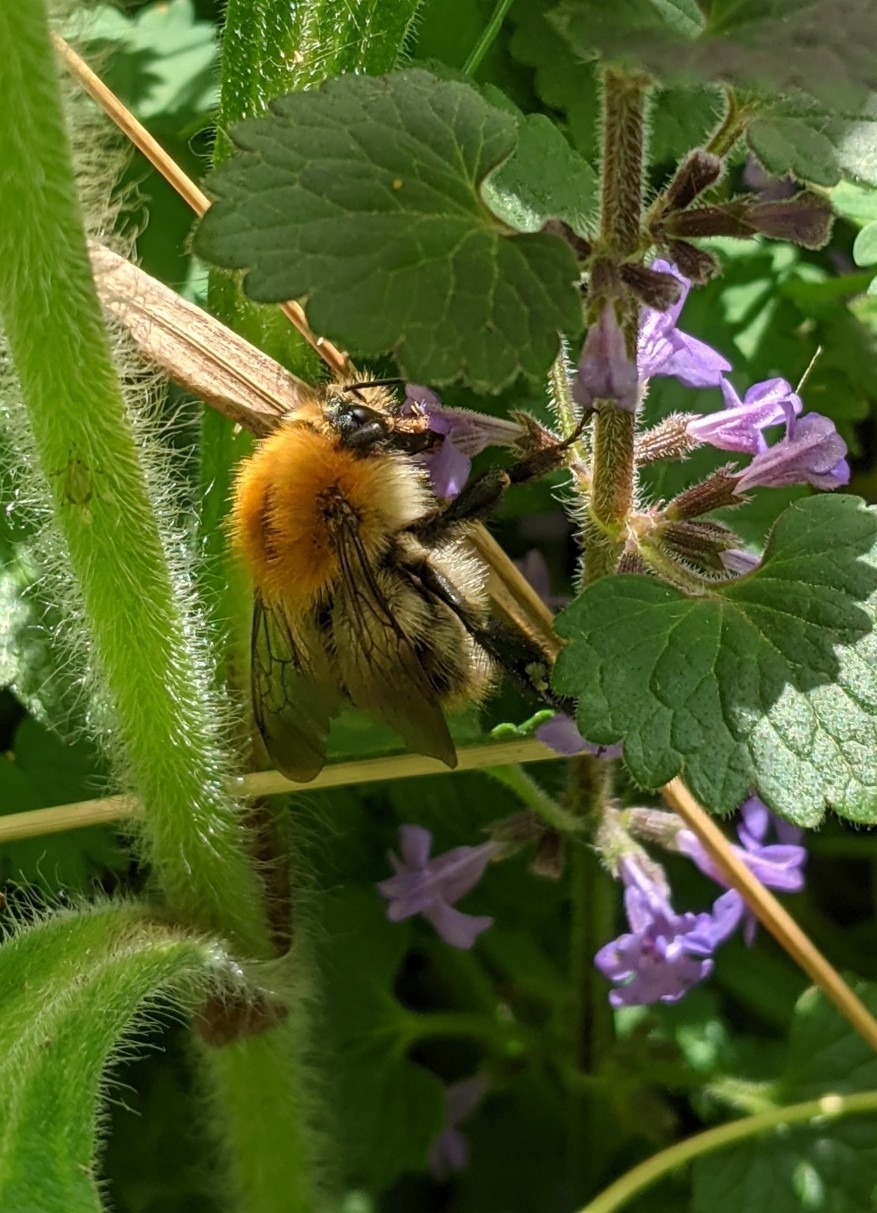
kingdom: Animalia
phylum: Arthropoda
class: Insecta
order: Hymenoptera
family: Apidae
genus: Bombus
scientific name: Bombus pascuorum
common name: Common carder bee
